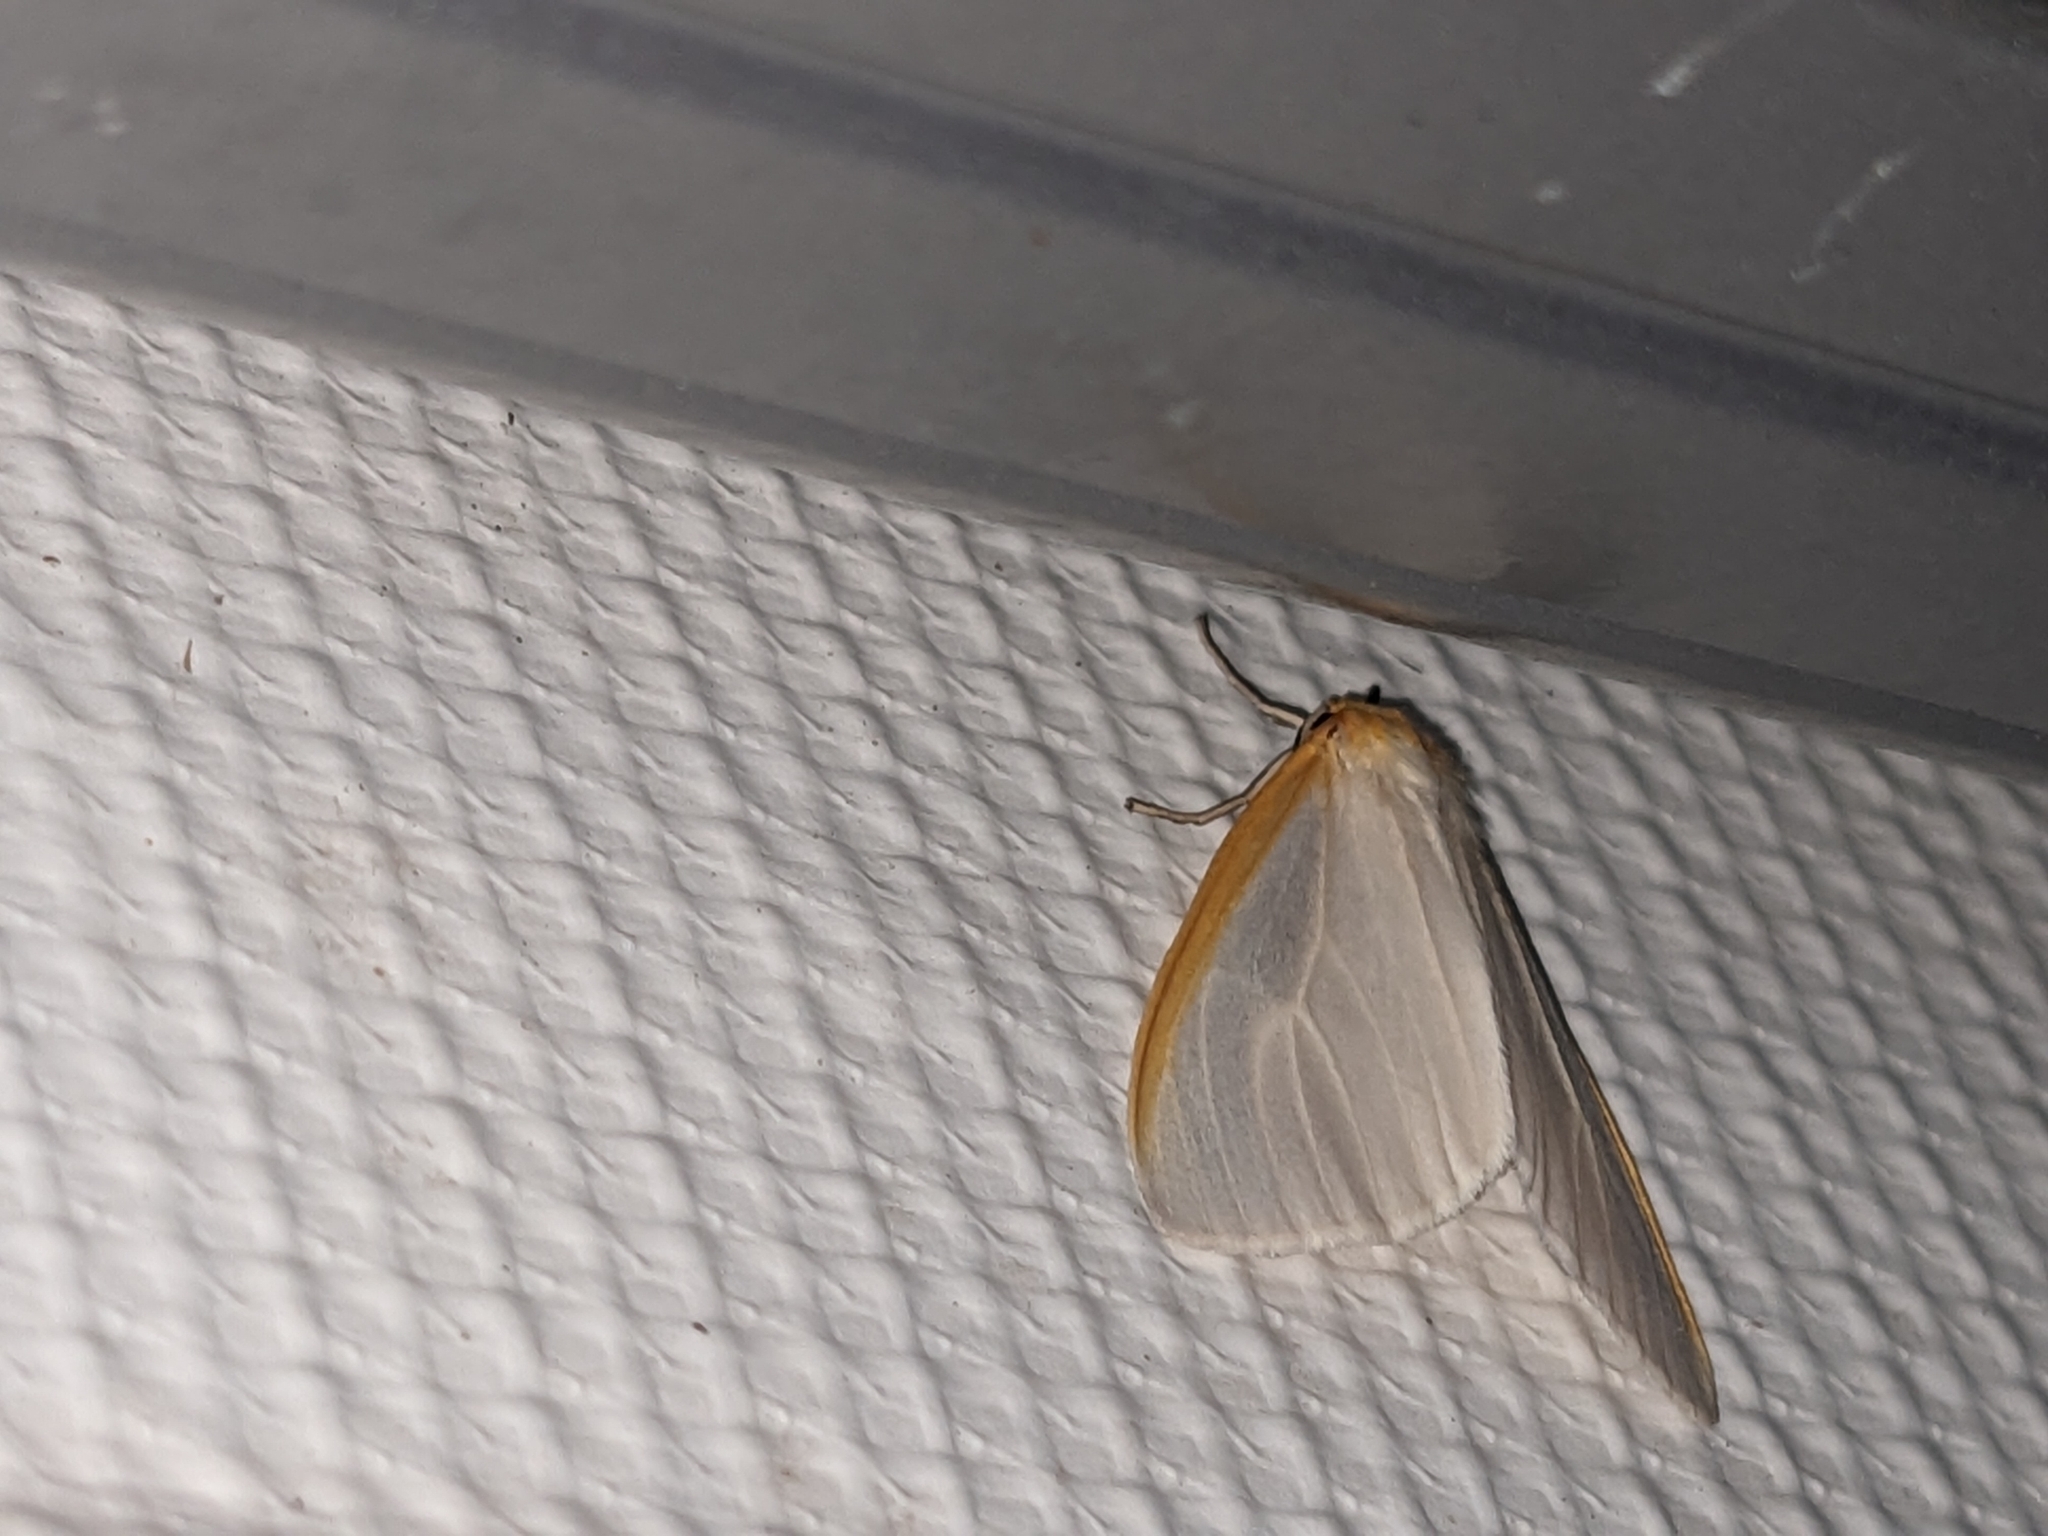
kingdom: Animalia
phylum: Arthropoda
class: Insecta
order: Lepidoptera
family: Erebidae
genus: Cycnia
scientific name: Cycnia tenera
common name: Delicate cycnia moth
